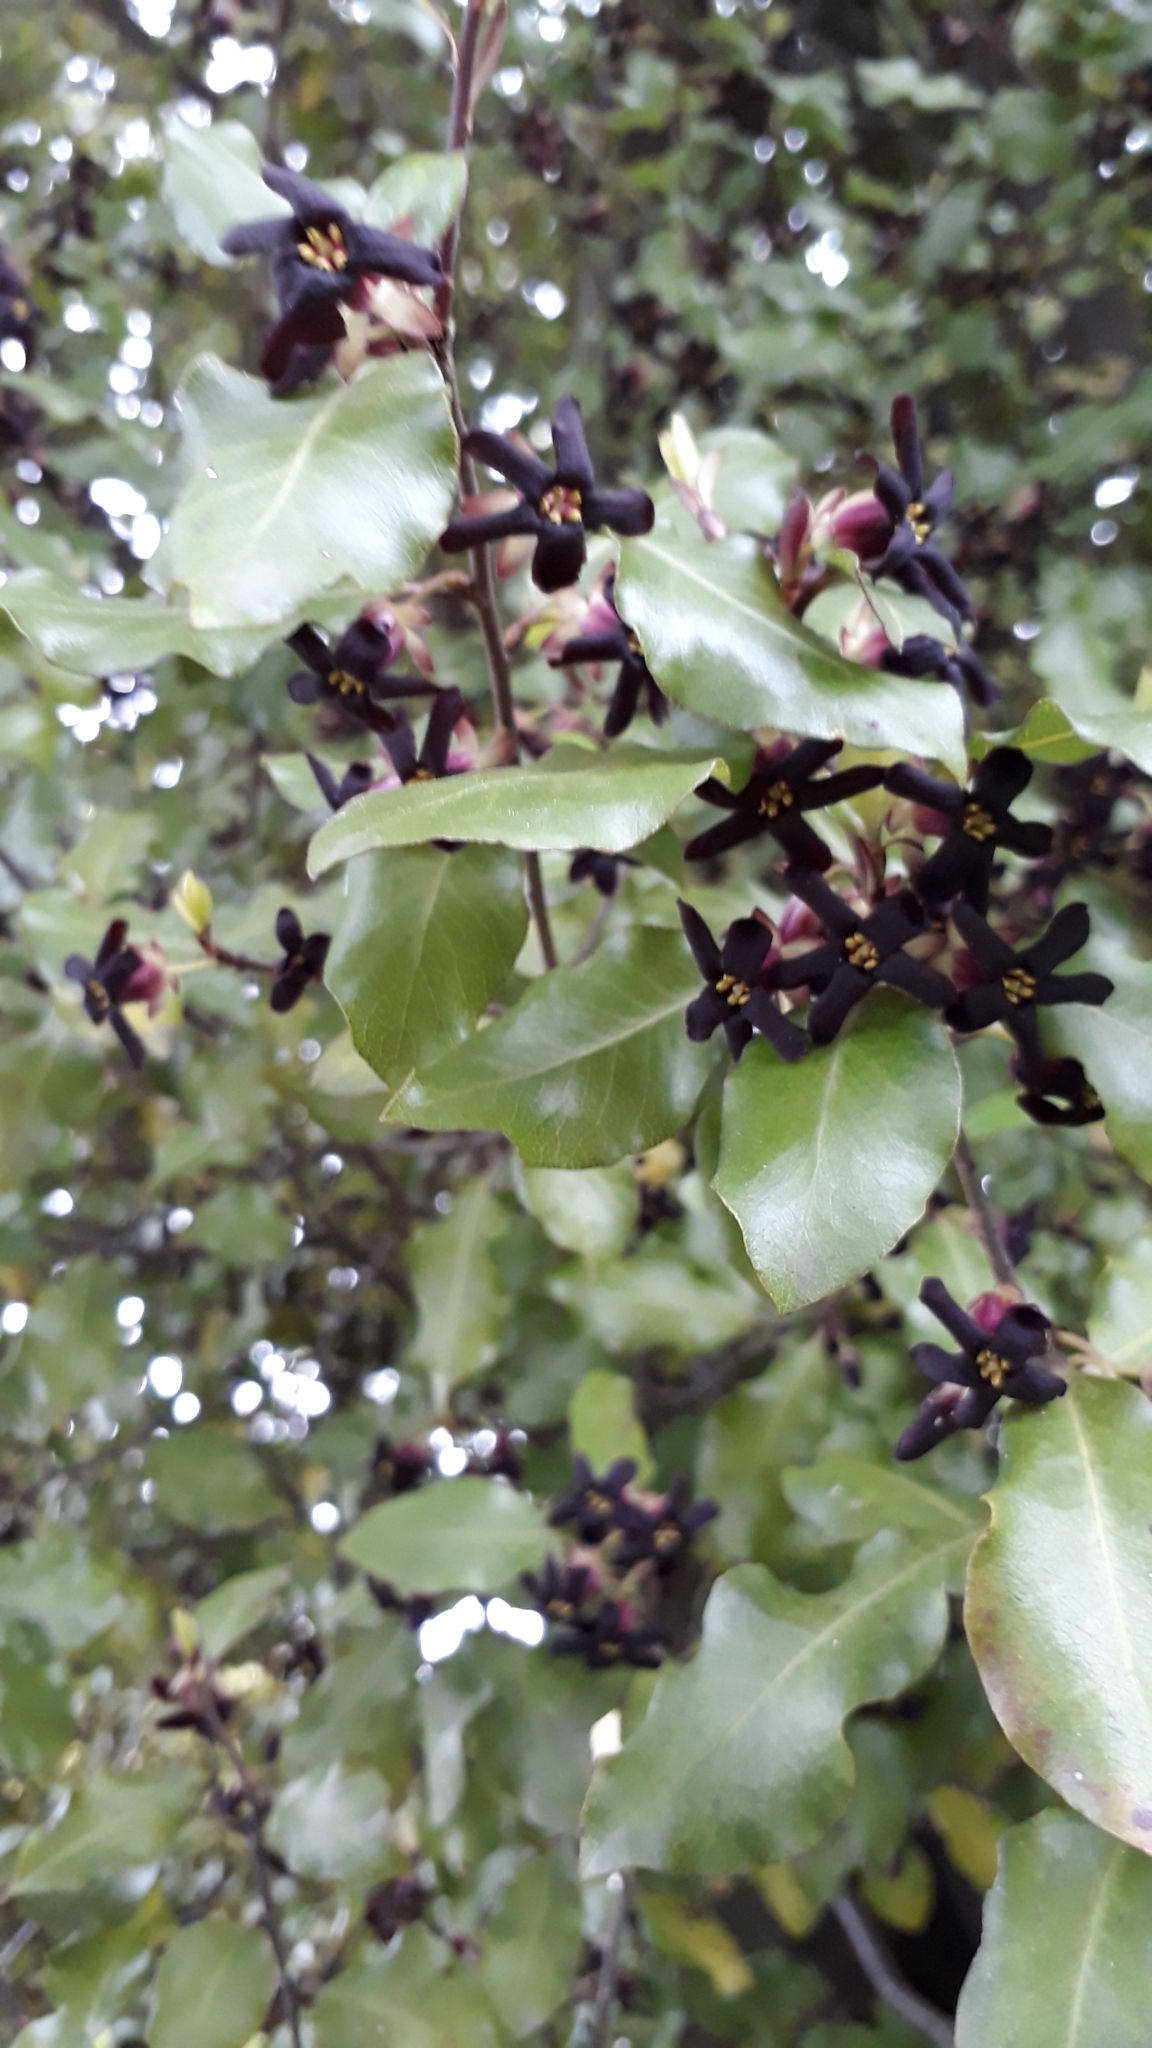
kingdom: Plantae
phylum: Tracheophyta
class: Magnoliopsida
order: Apiales
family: Pittosporaceae
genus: Pittosporum
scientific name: Pittosporum tenuifolium
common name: Kohuhu
